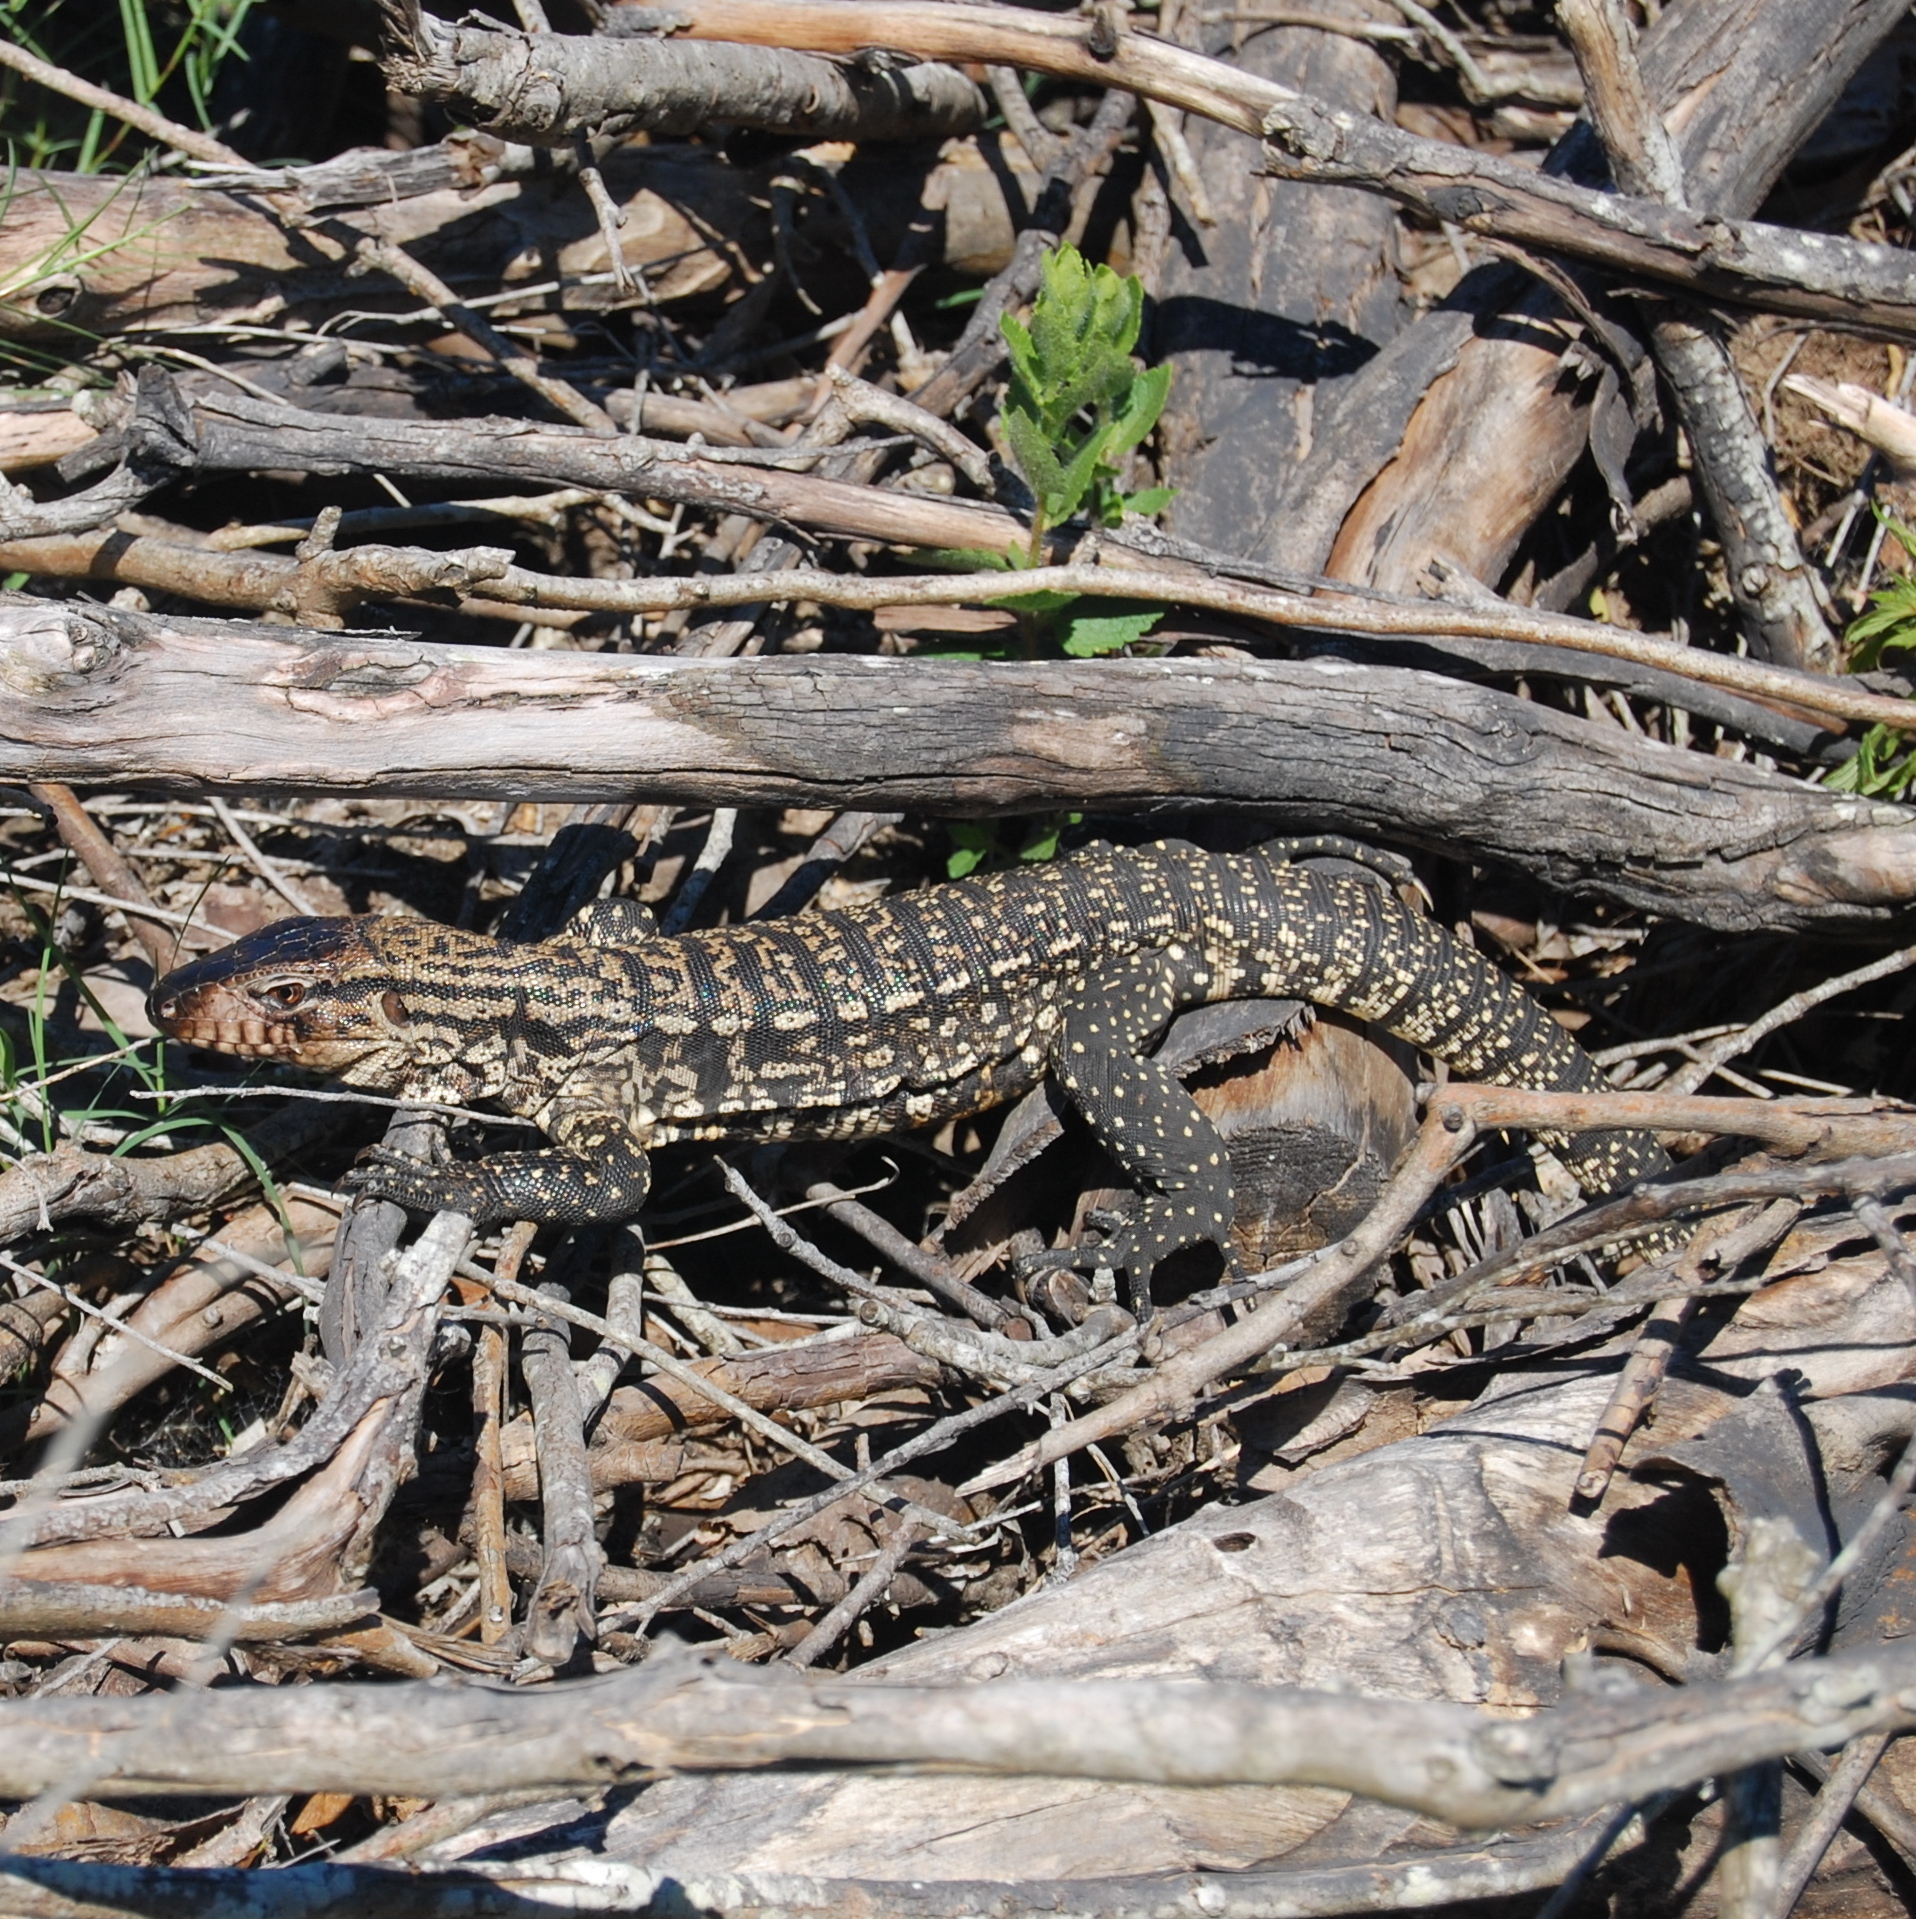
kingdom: Animalia
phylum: Chordata
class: Squamata
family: Teiidae
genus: Salvator
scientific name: Salvator merianae
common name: Argentine black and white tegu
